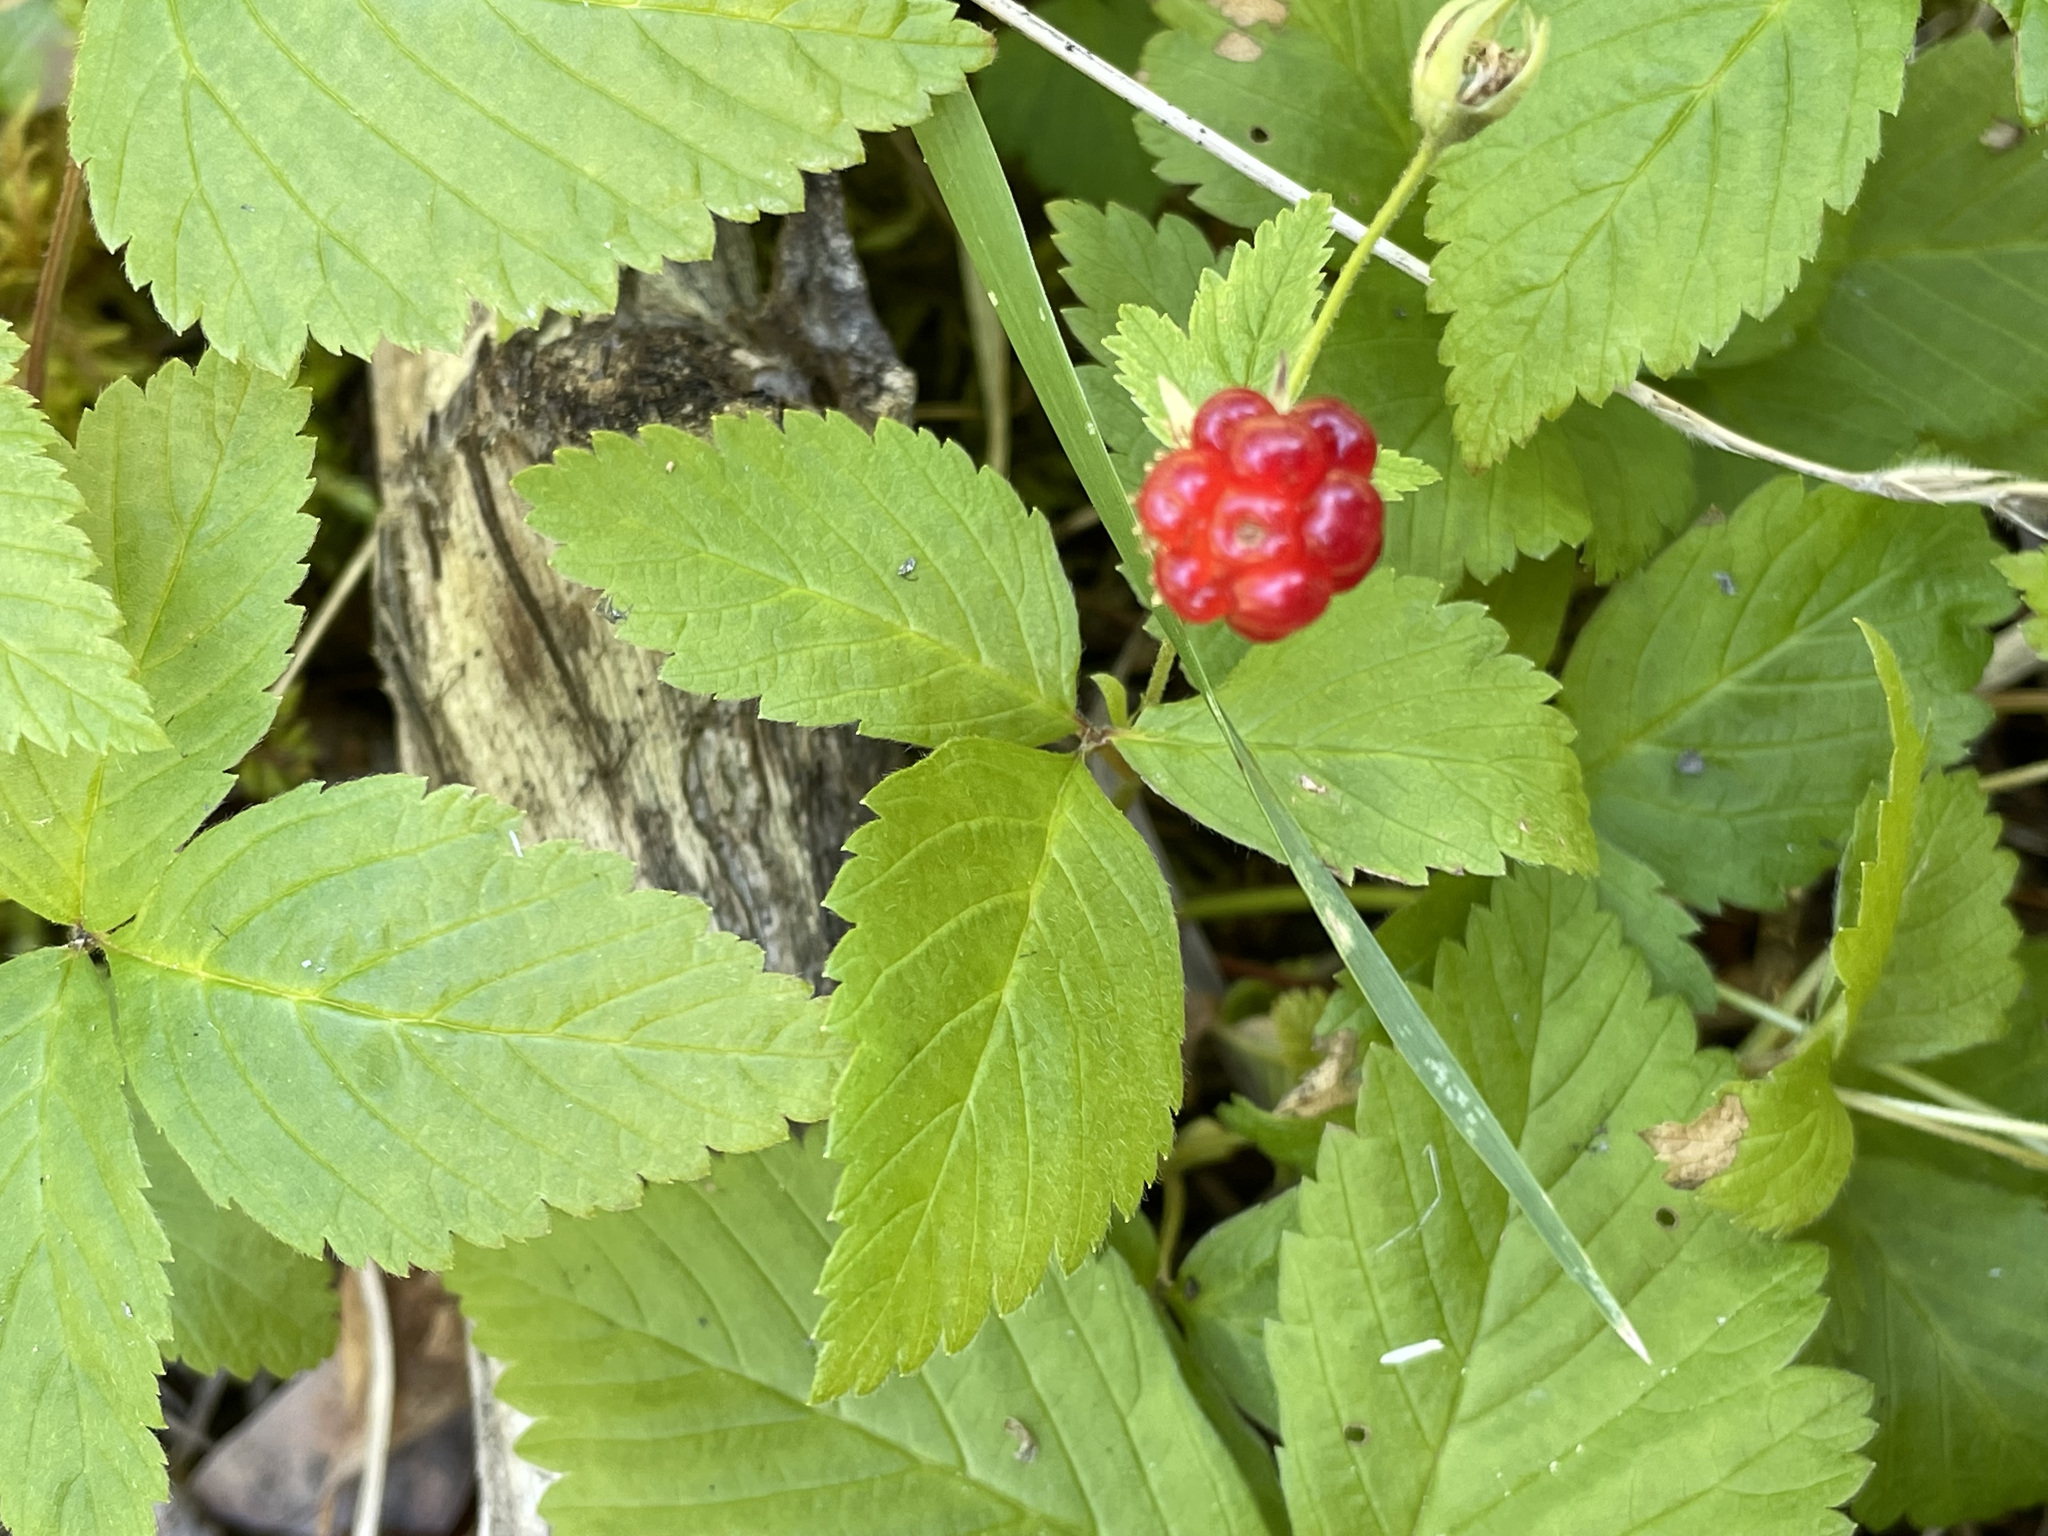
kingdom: Plantae
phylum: Tracheophyta
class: Magnoliopsida
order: Rosales
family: Rosaceae
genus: Rubus
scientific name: Rubus pubescens
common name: Dwarf raspberry
